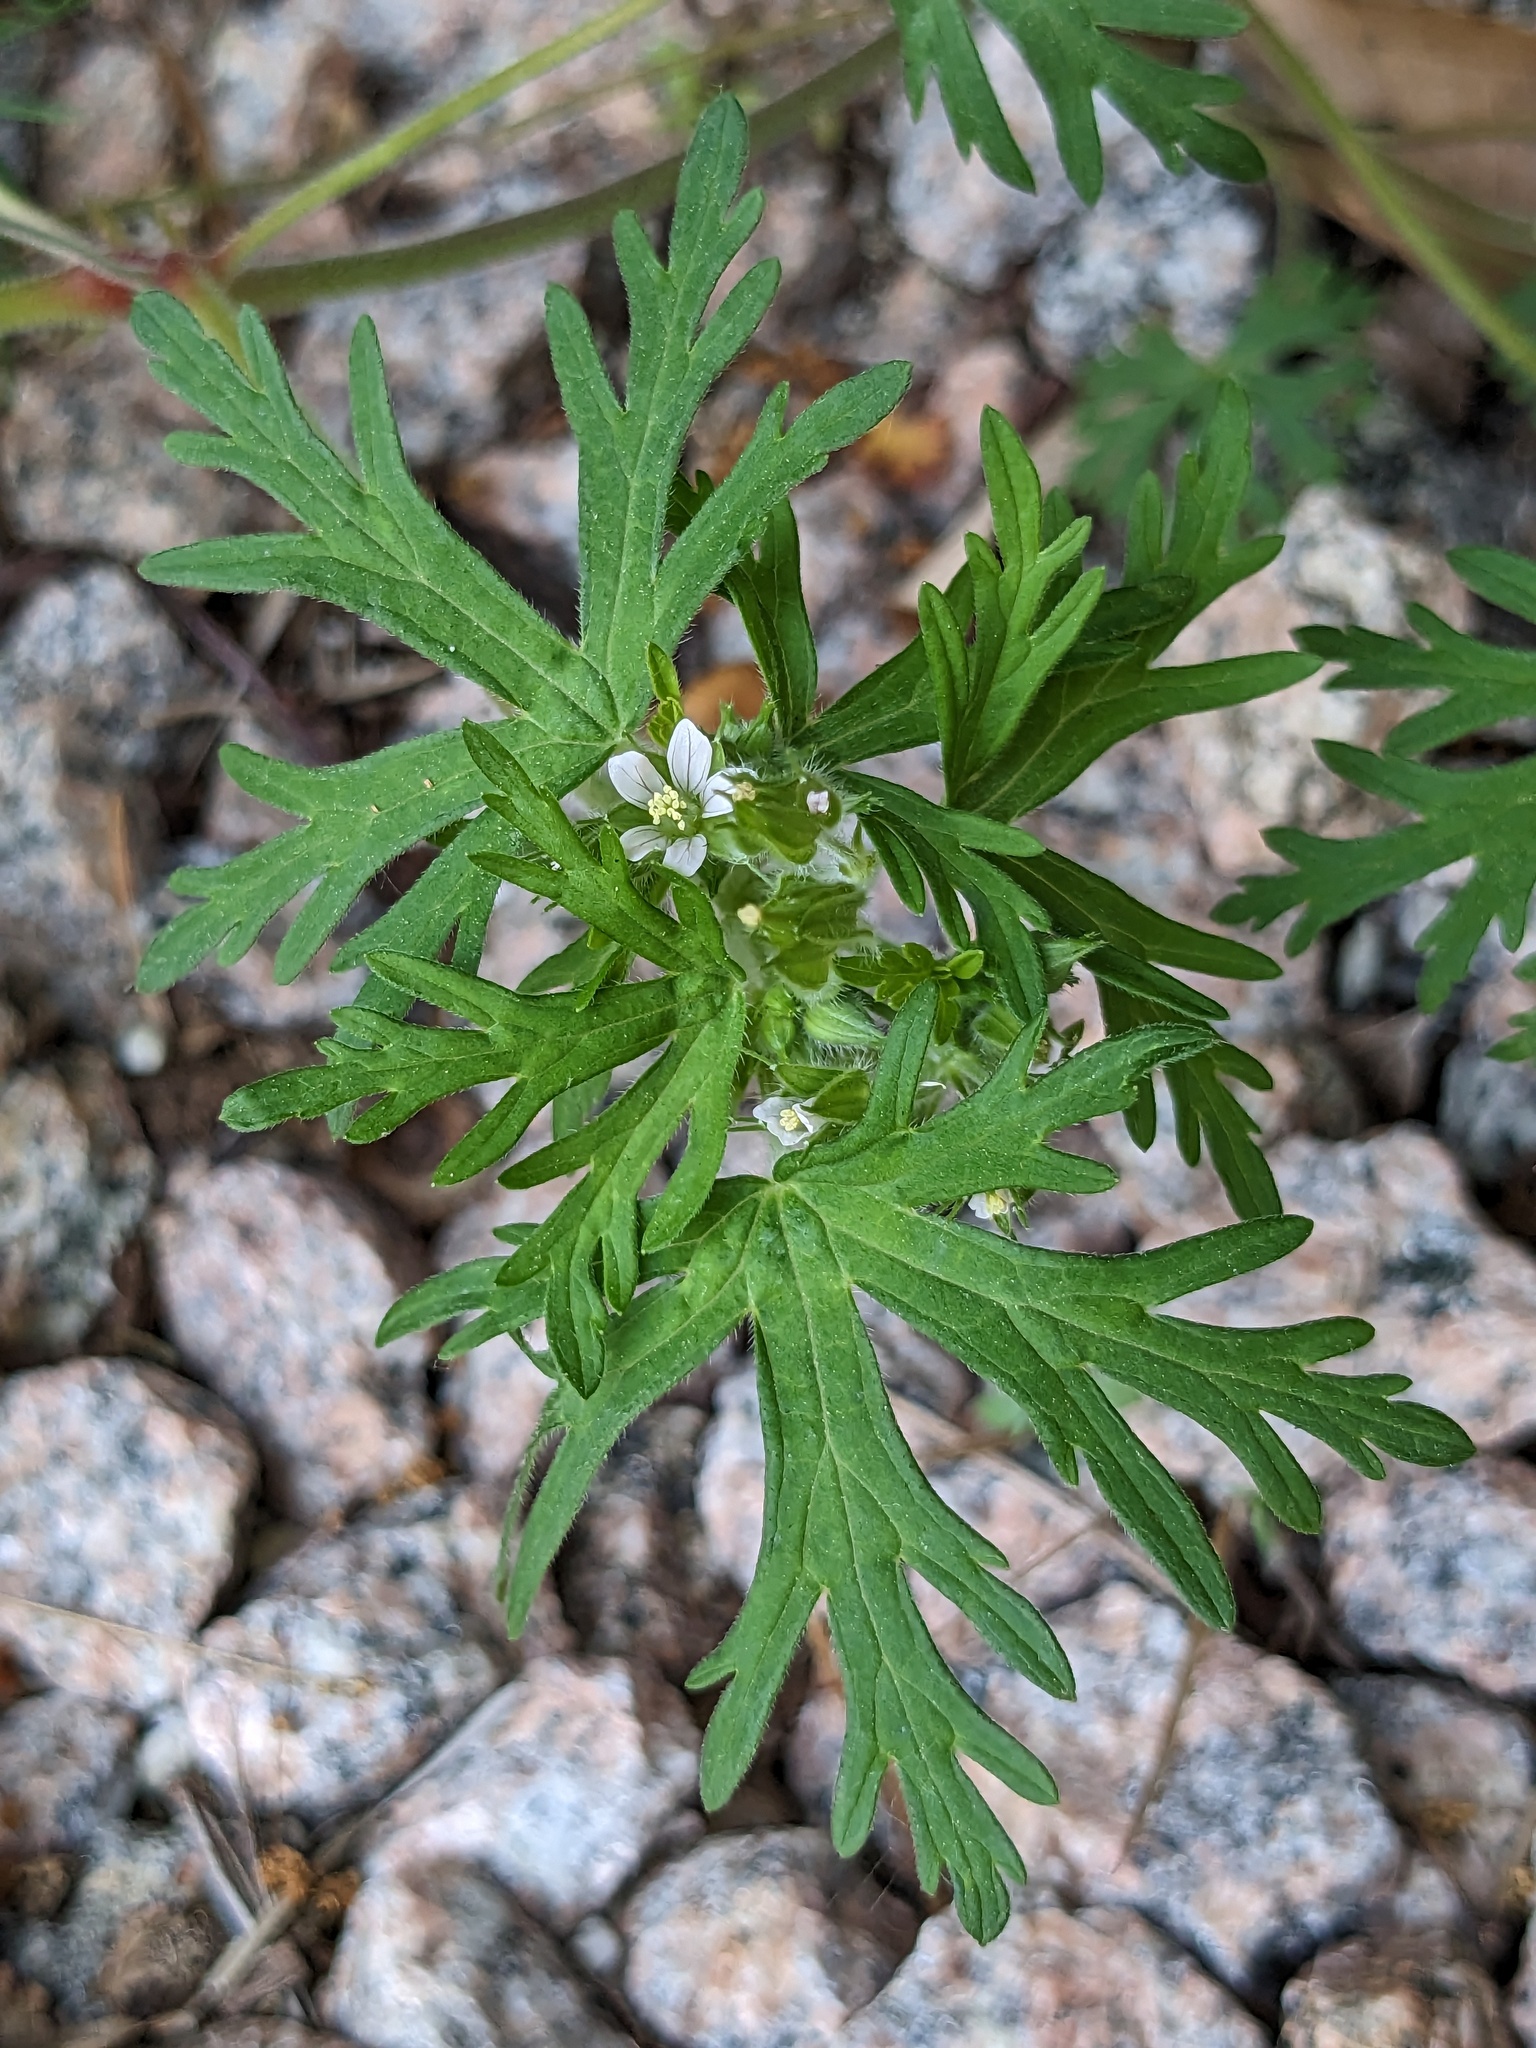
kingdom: Plantae
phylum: Tracheophyta
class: Magnoliopsida
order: Geraniales
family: Geraniaceae
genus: Geranium
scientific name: Geranium carolinianum
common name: Carolina crane's-bill
